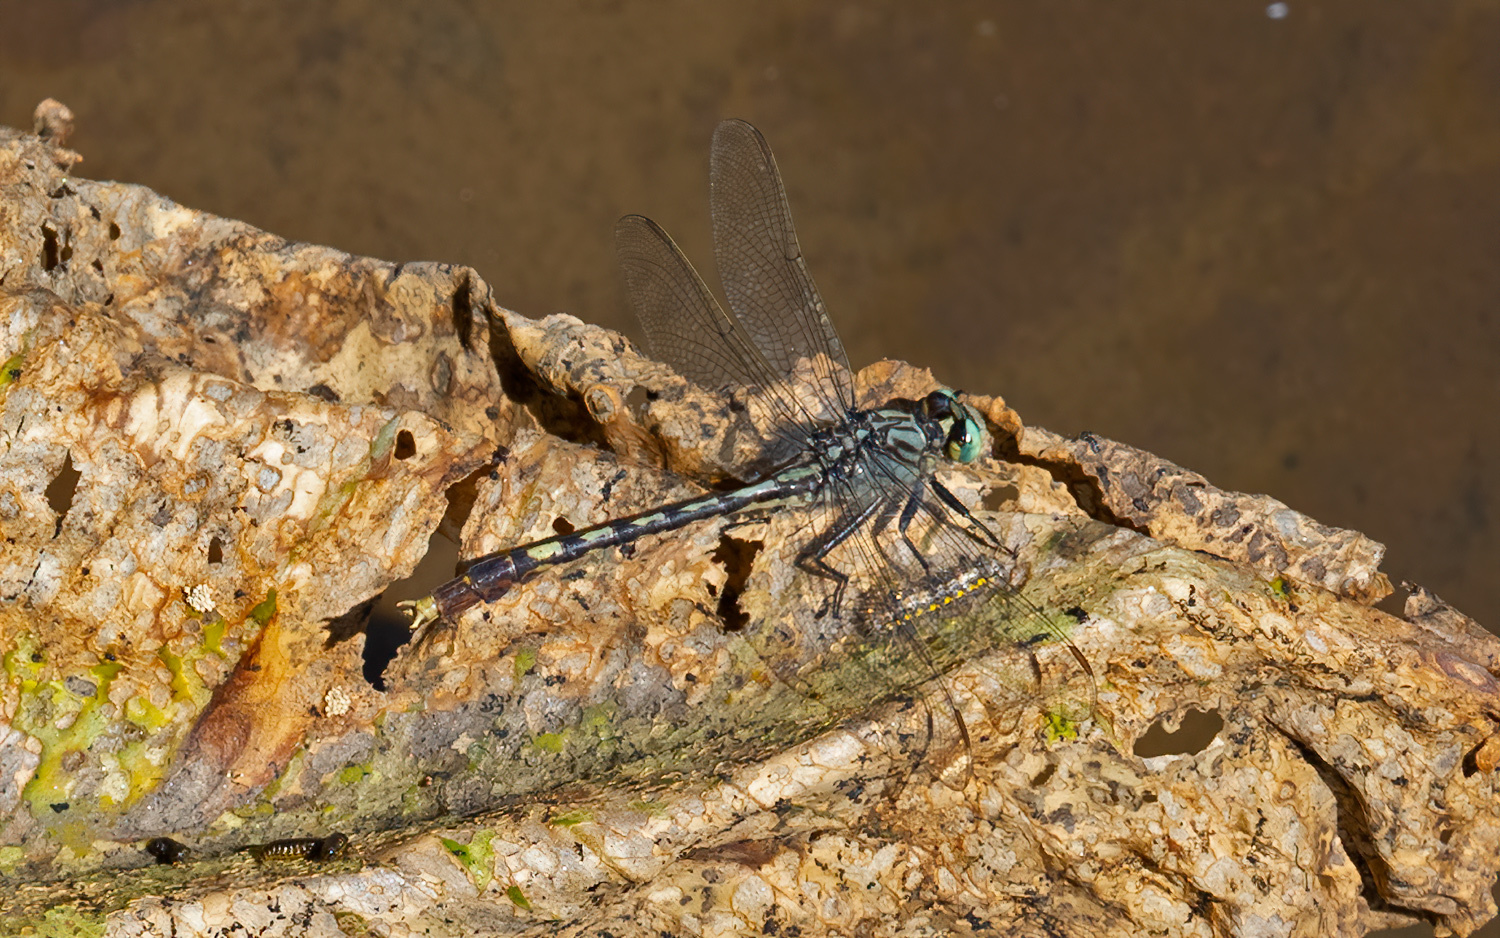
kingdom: Animalia
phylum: Arthropoda
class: Insecta
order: Odonata
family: Gomphidae
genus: Arigomphus
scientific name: Arigomphus villosipes
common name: Unicorn clubtail
